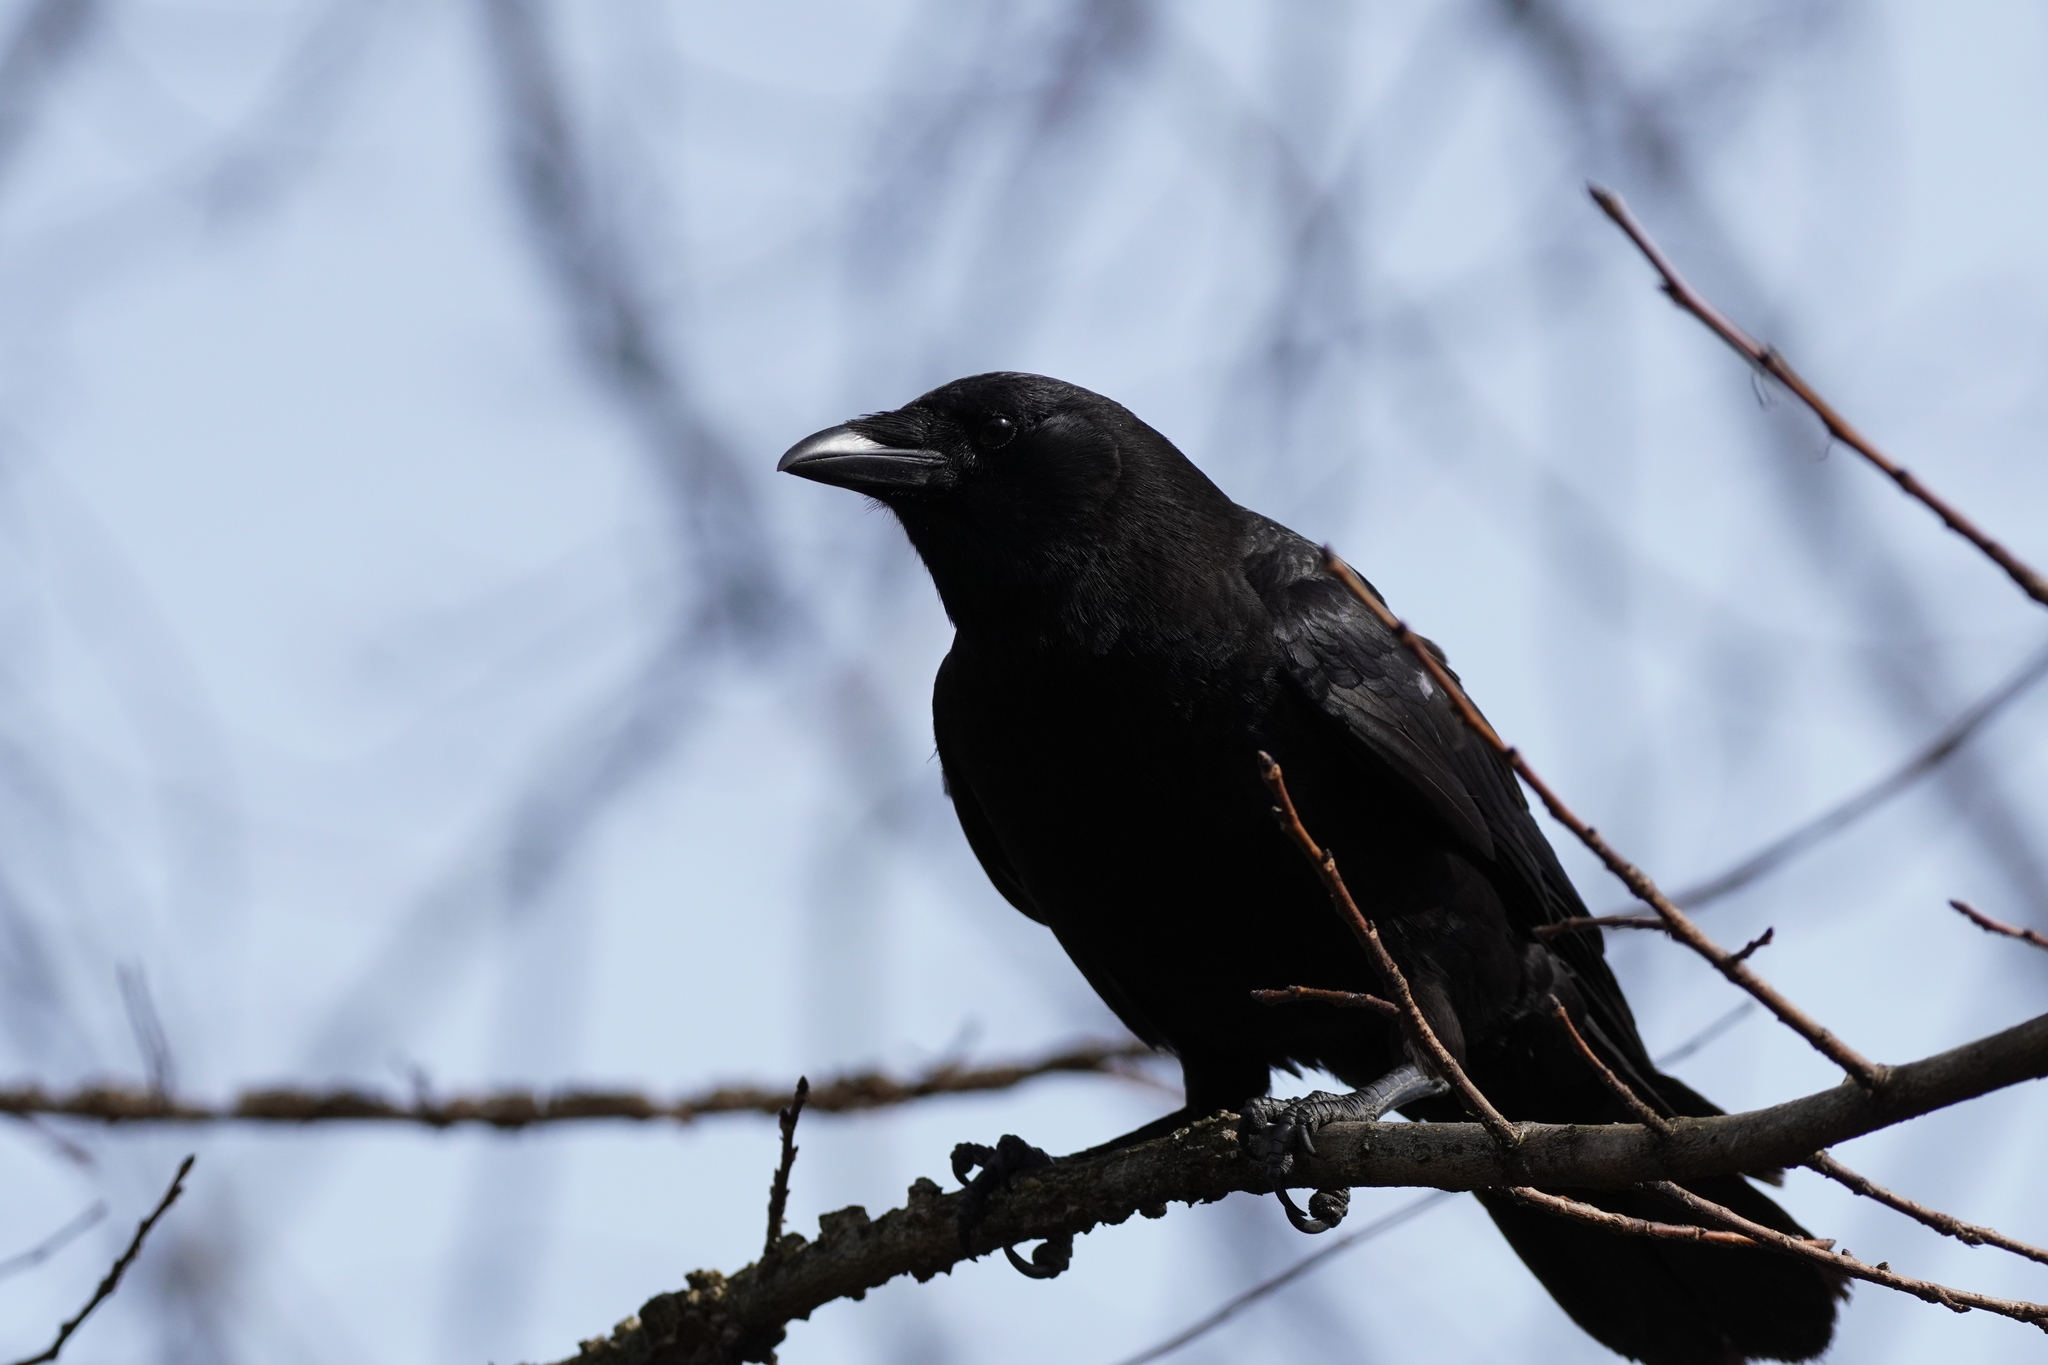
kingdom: Animalia
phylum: Chordata
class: Aves
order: Passeriformes
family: Corvidae
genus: Corvus
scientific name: Corvus brachyrhynchos
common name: American crow
